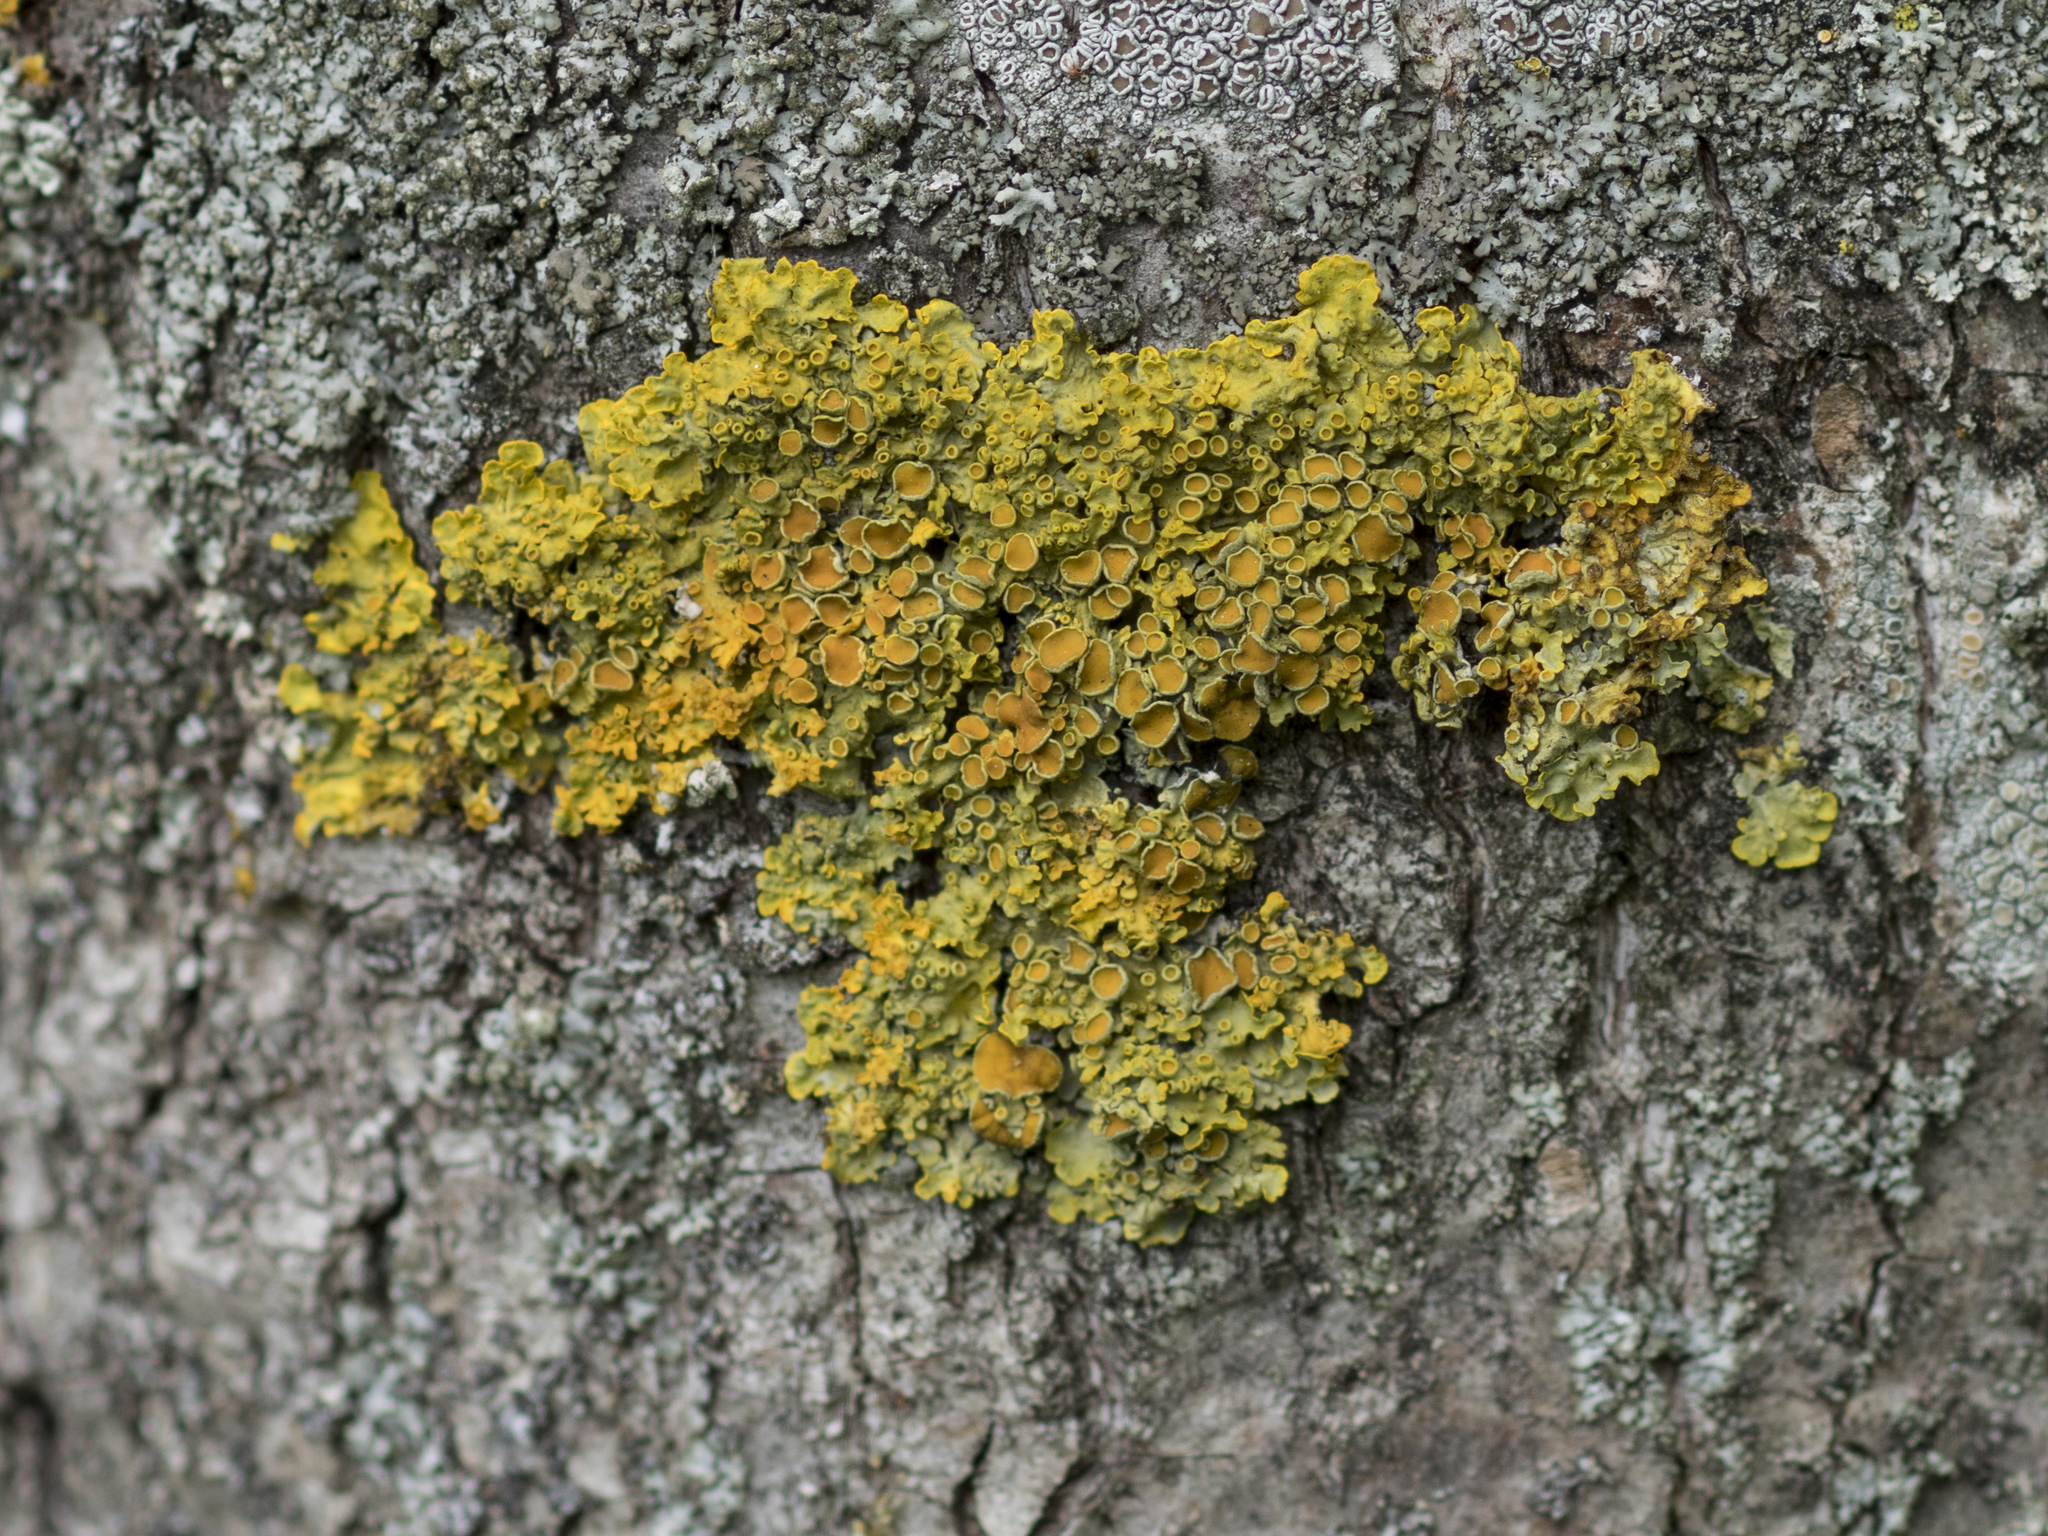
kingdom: Fungi
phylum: Ascomycota
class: Lecanoromycetes
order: Teloschistales
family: Teloschistaceae
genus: Xanthoria
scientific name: Xanthoria parietina
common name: Common orange lichen
